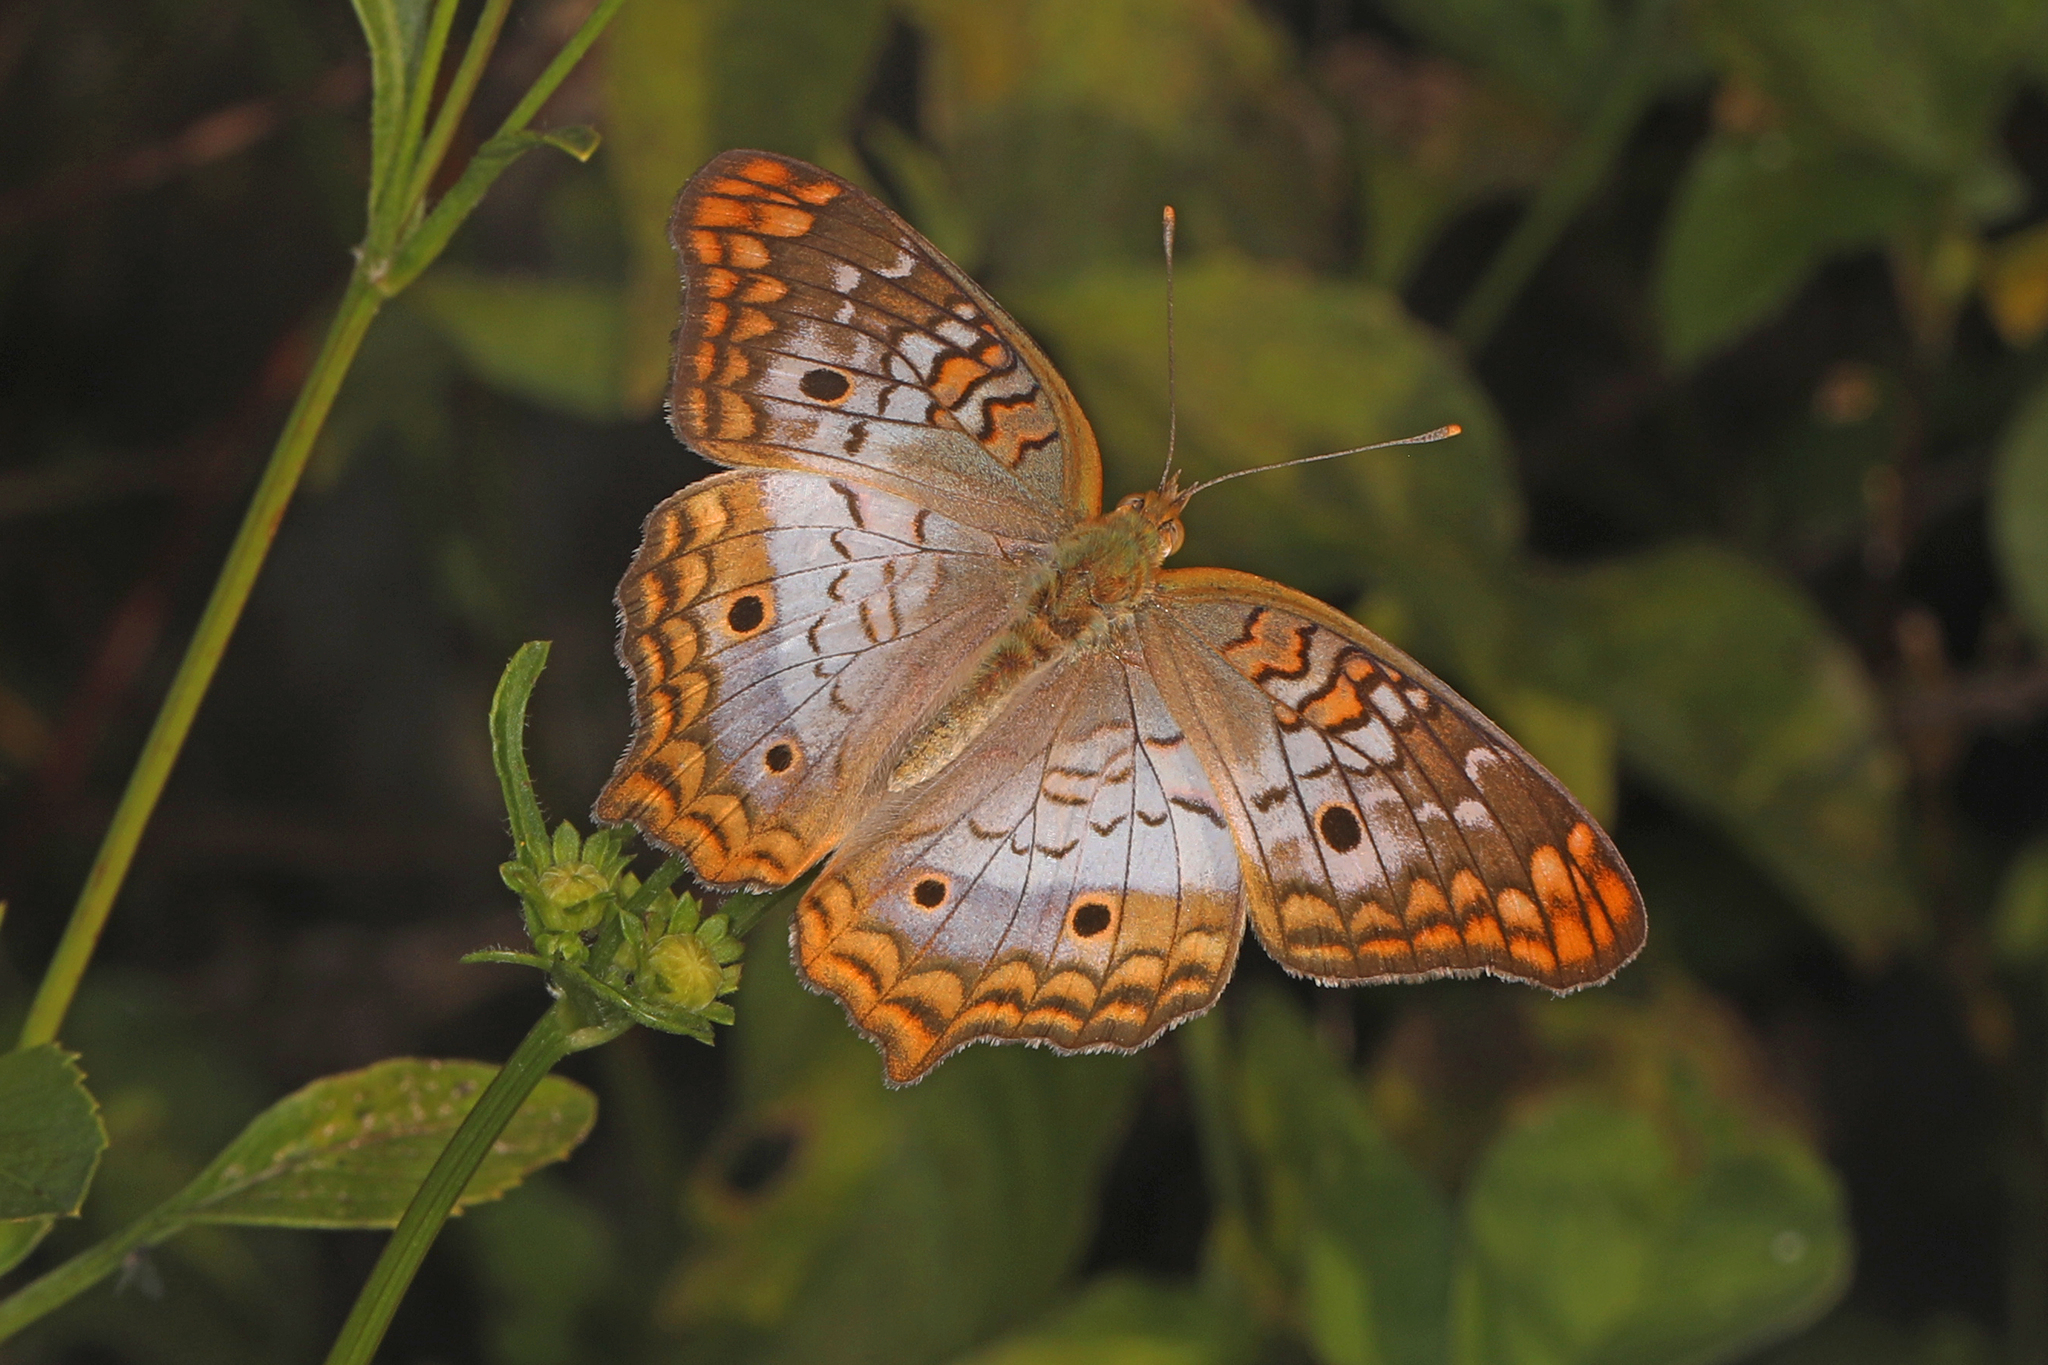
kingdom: Animalia
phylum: Arthropoda
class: Insecta
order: Lepidoptera
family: Nymphalidae
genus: Anartia
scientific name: Anartia jatrophae
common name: White peacock
